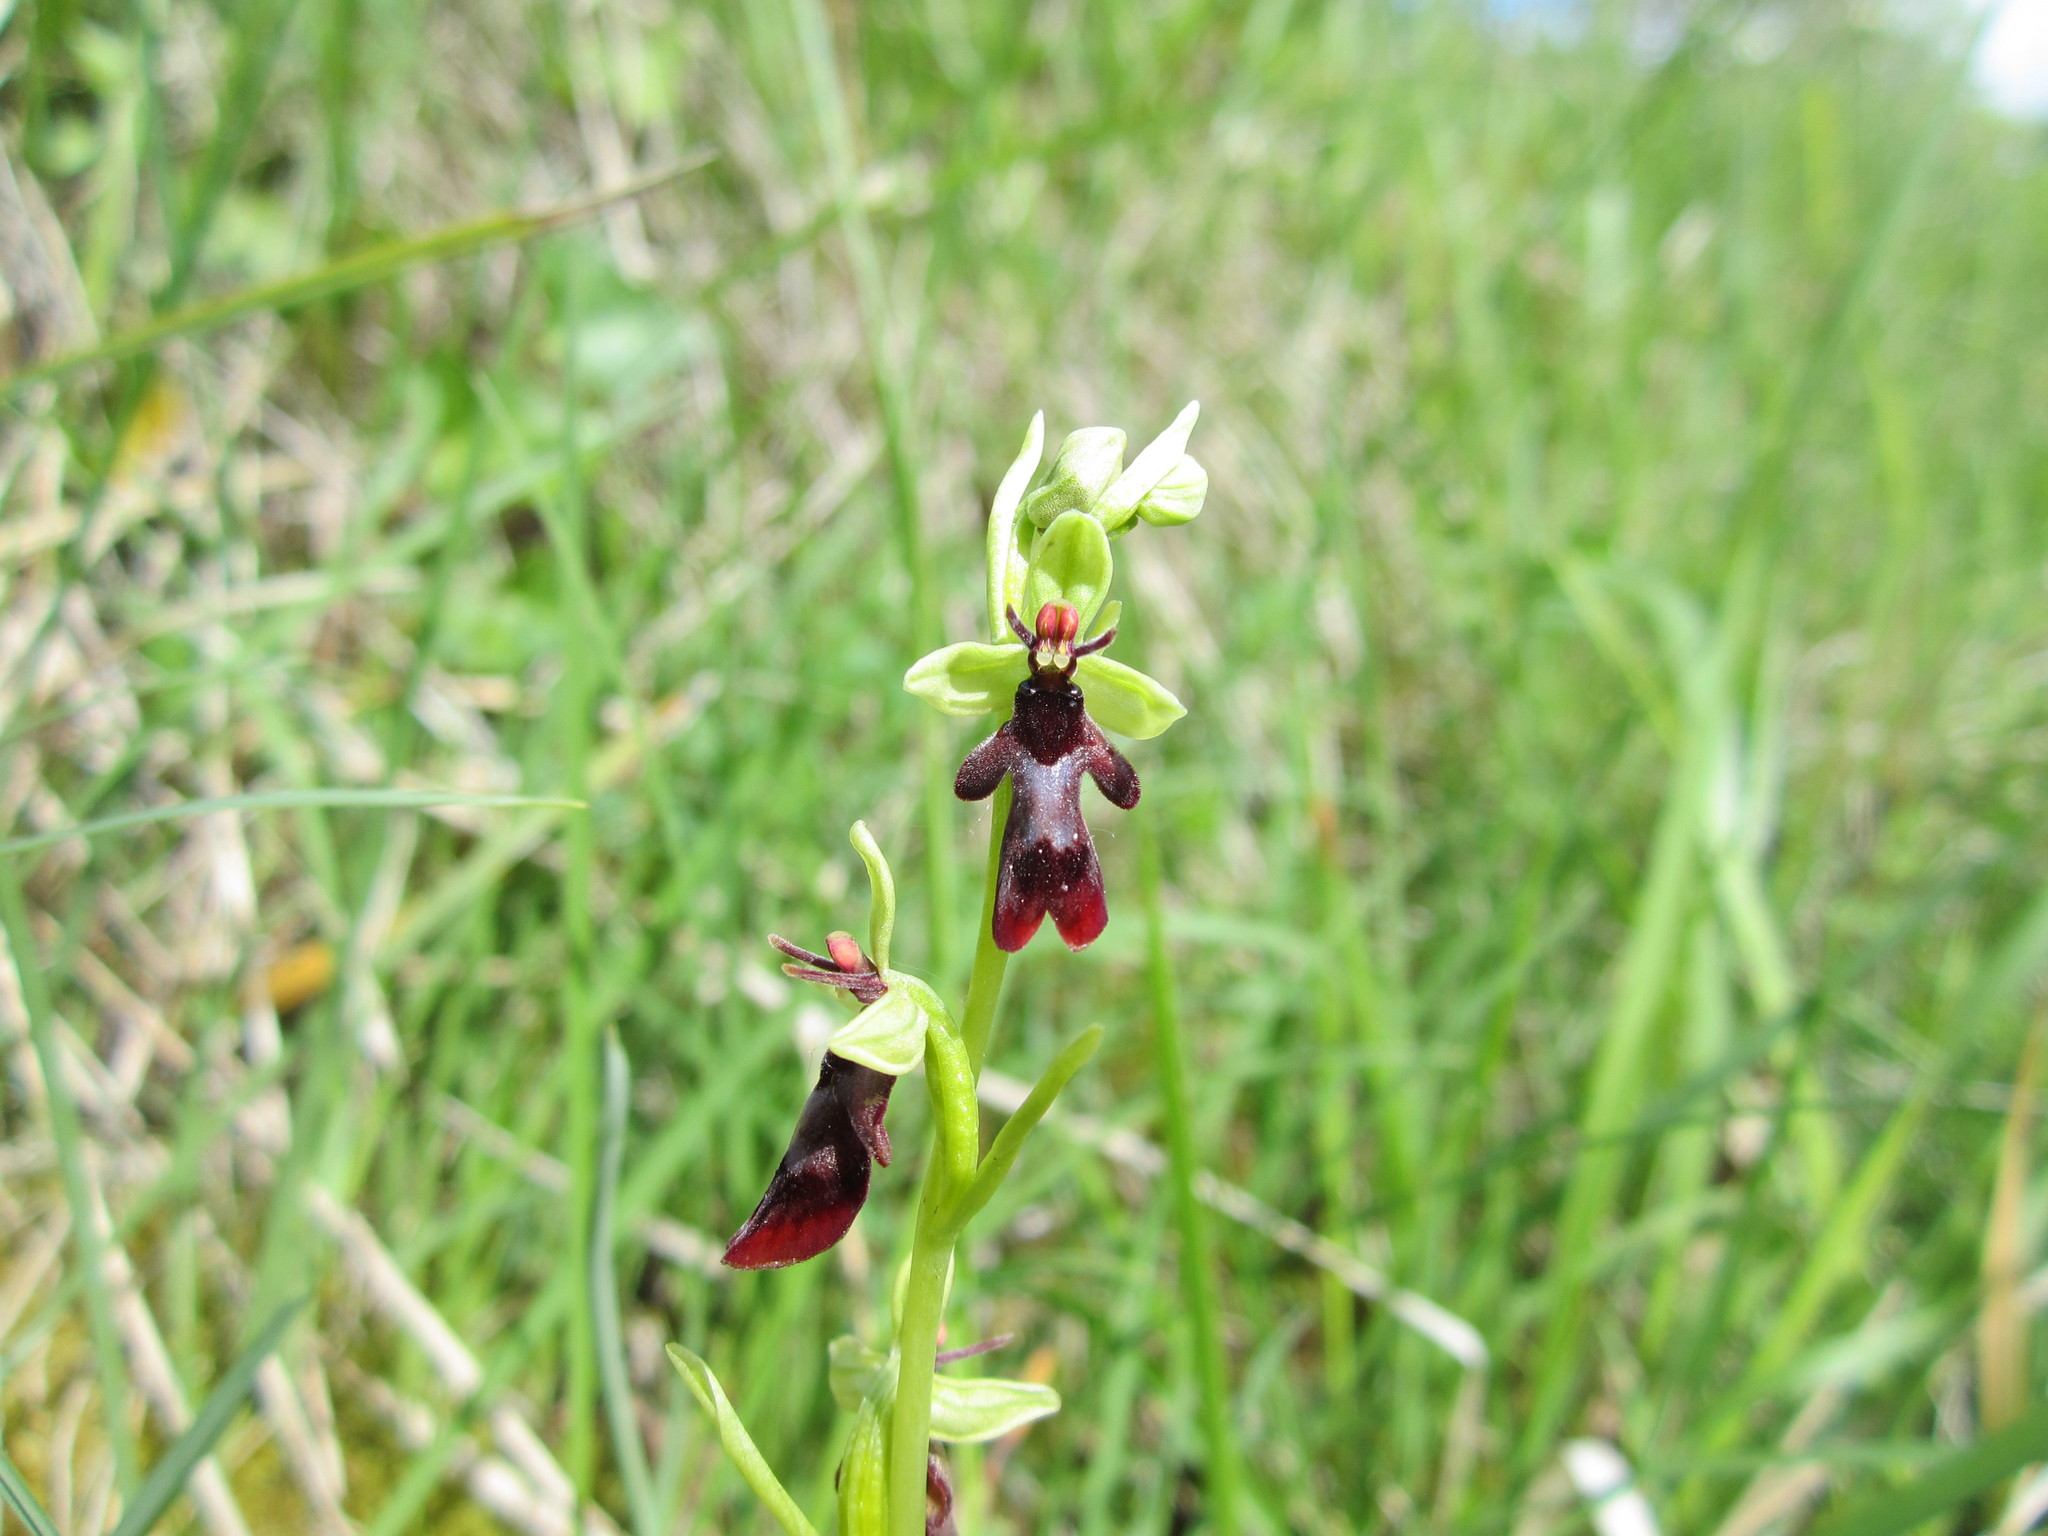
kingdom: Plantae
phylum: Tracheophyta
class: Liliopsida
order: Asparagales
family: Orchidaceae
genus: Ophrys
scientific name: Ophrys insectifera
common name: Fly orchid
